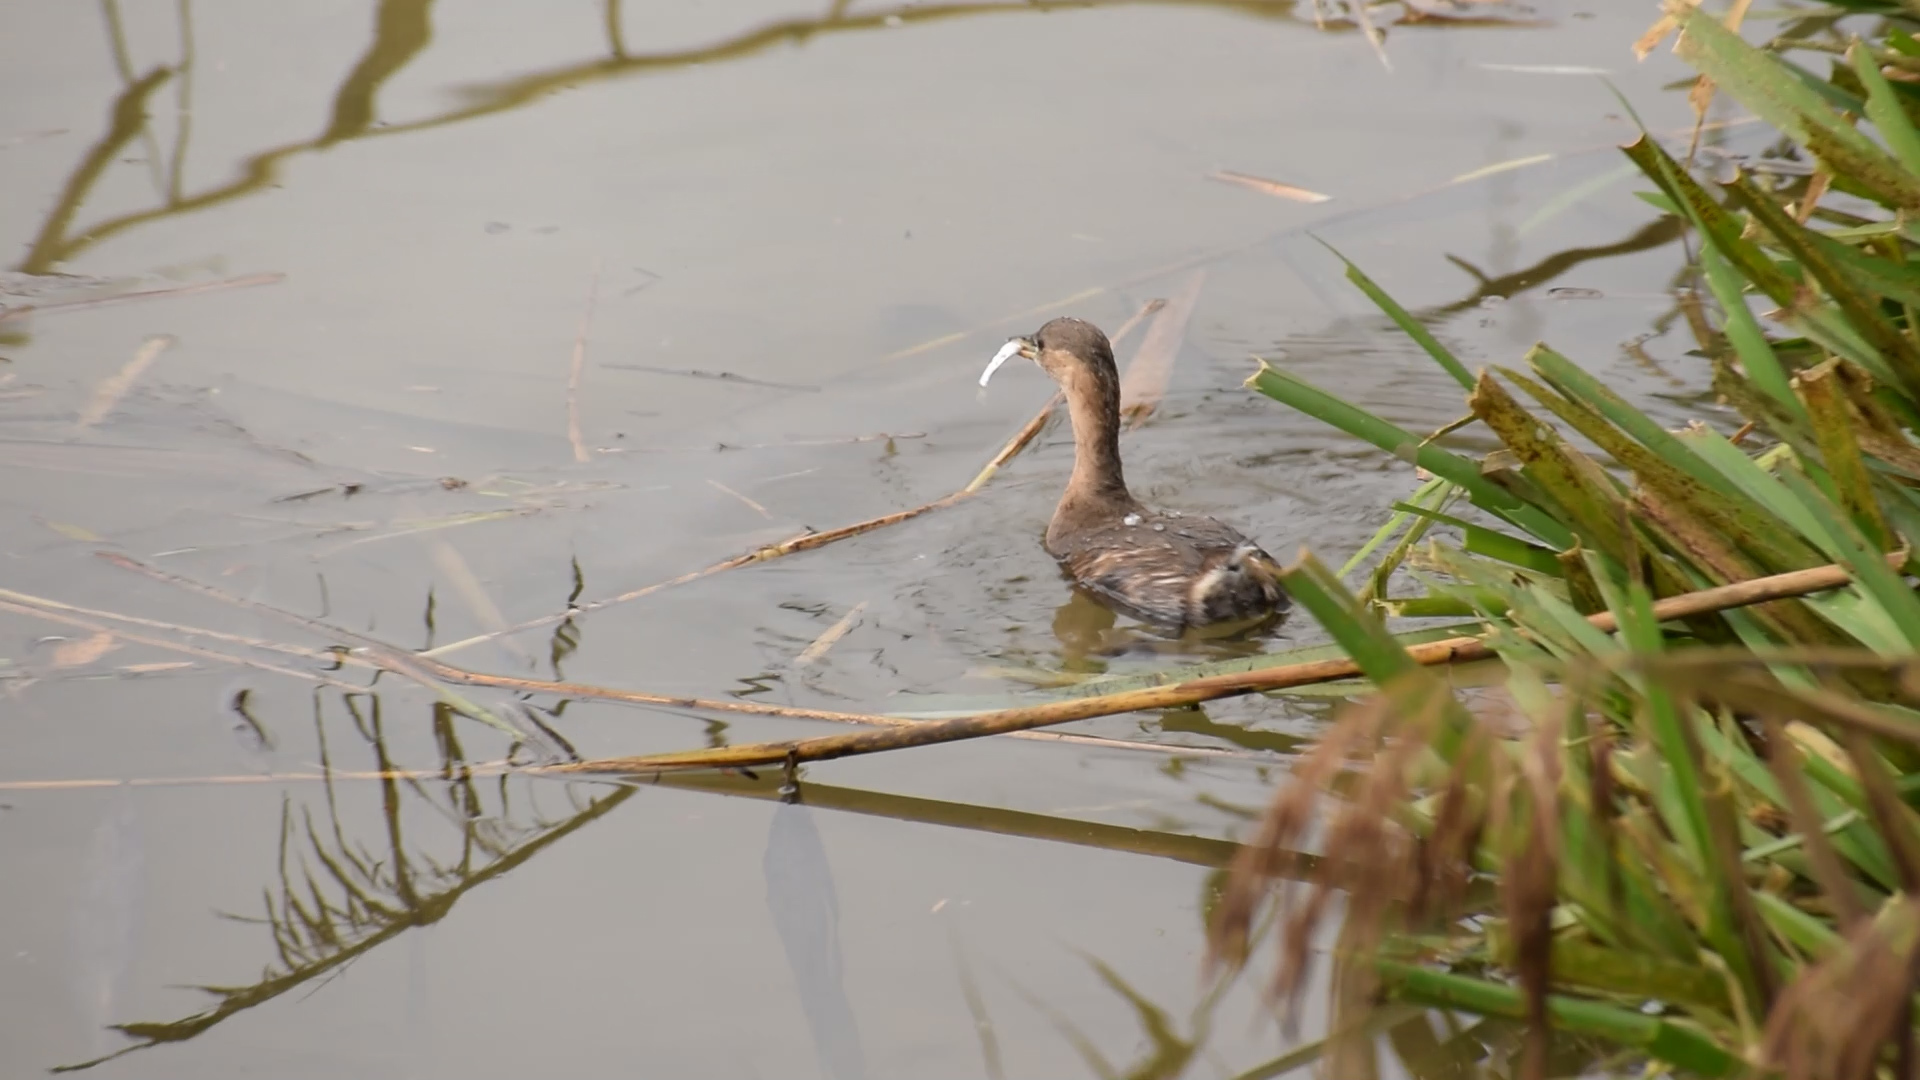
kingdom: Animalia
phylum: Chordata
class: Aves
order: Podicipediformes
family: Podicipedidae
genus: Tachybaptus
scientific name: Tachybaptus ruficollis
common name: Little grebe
